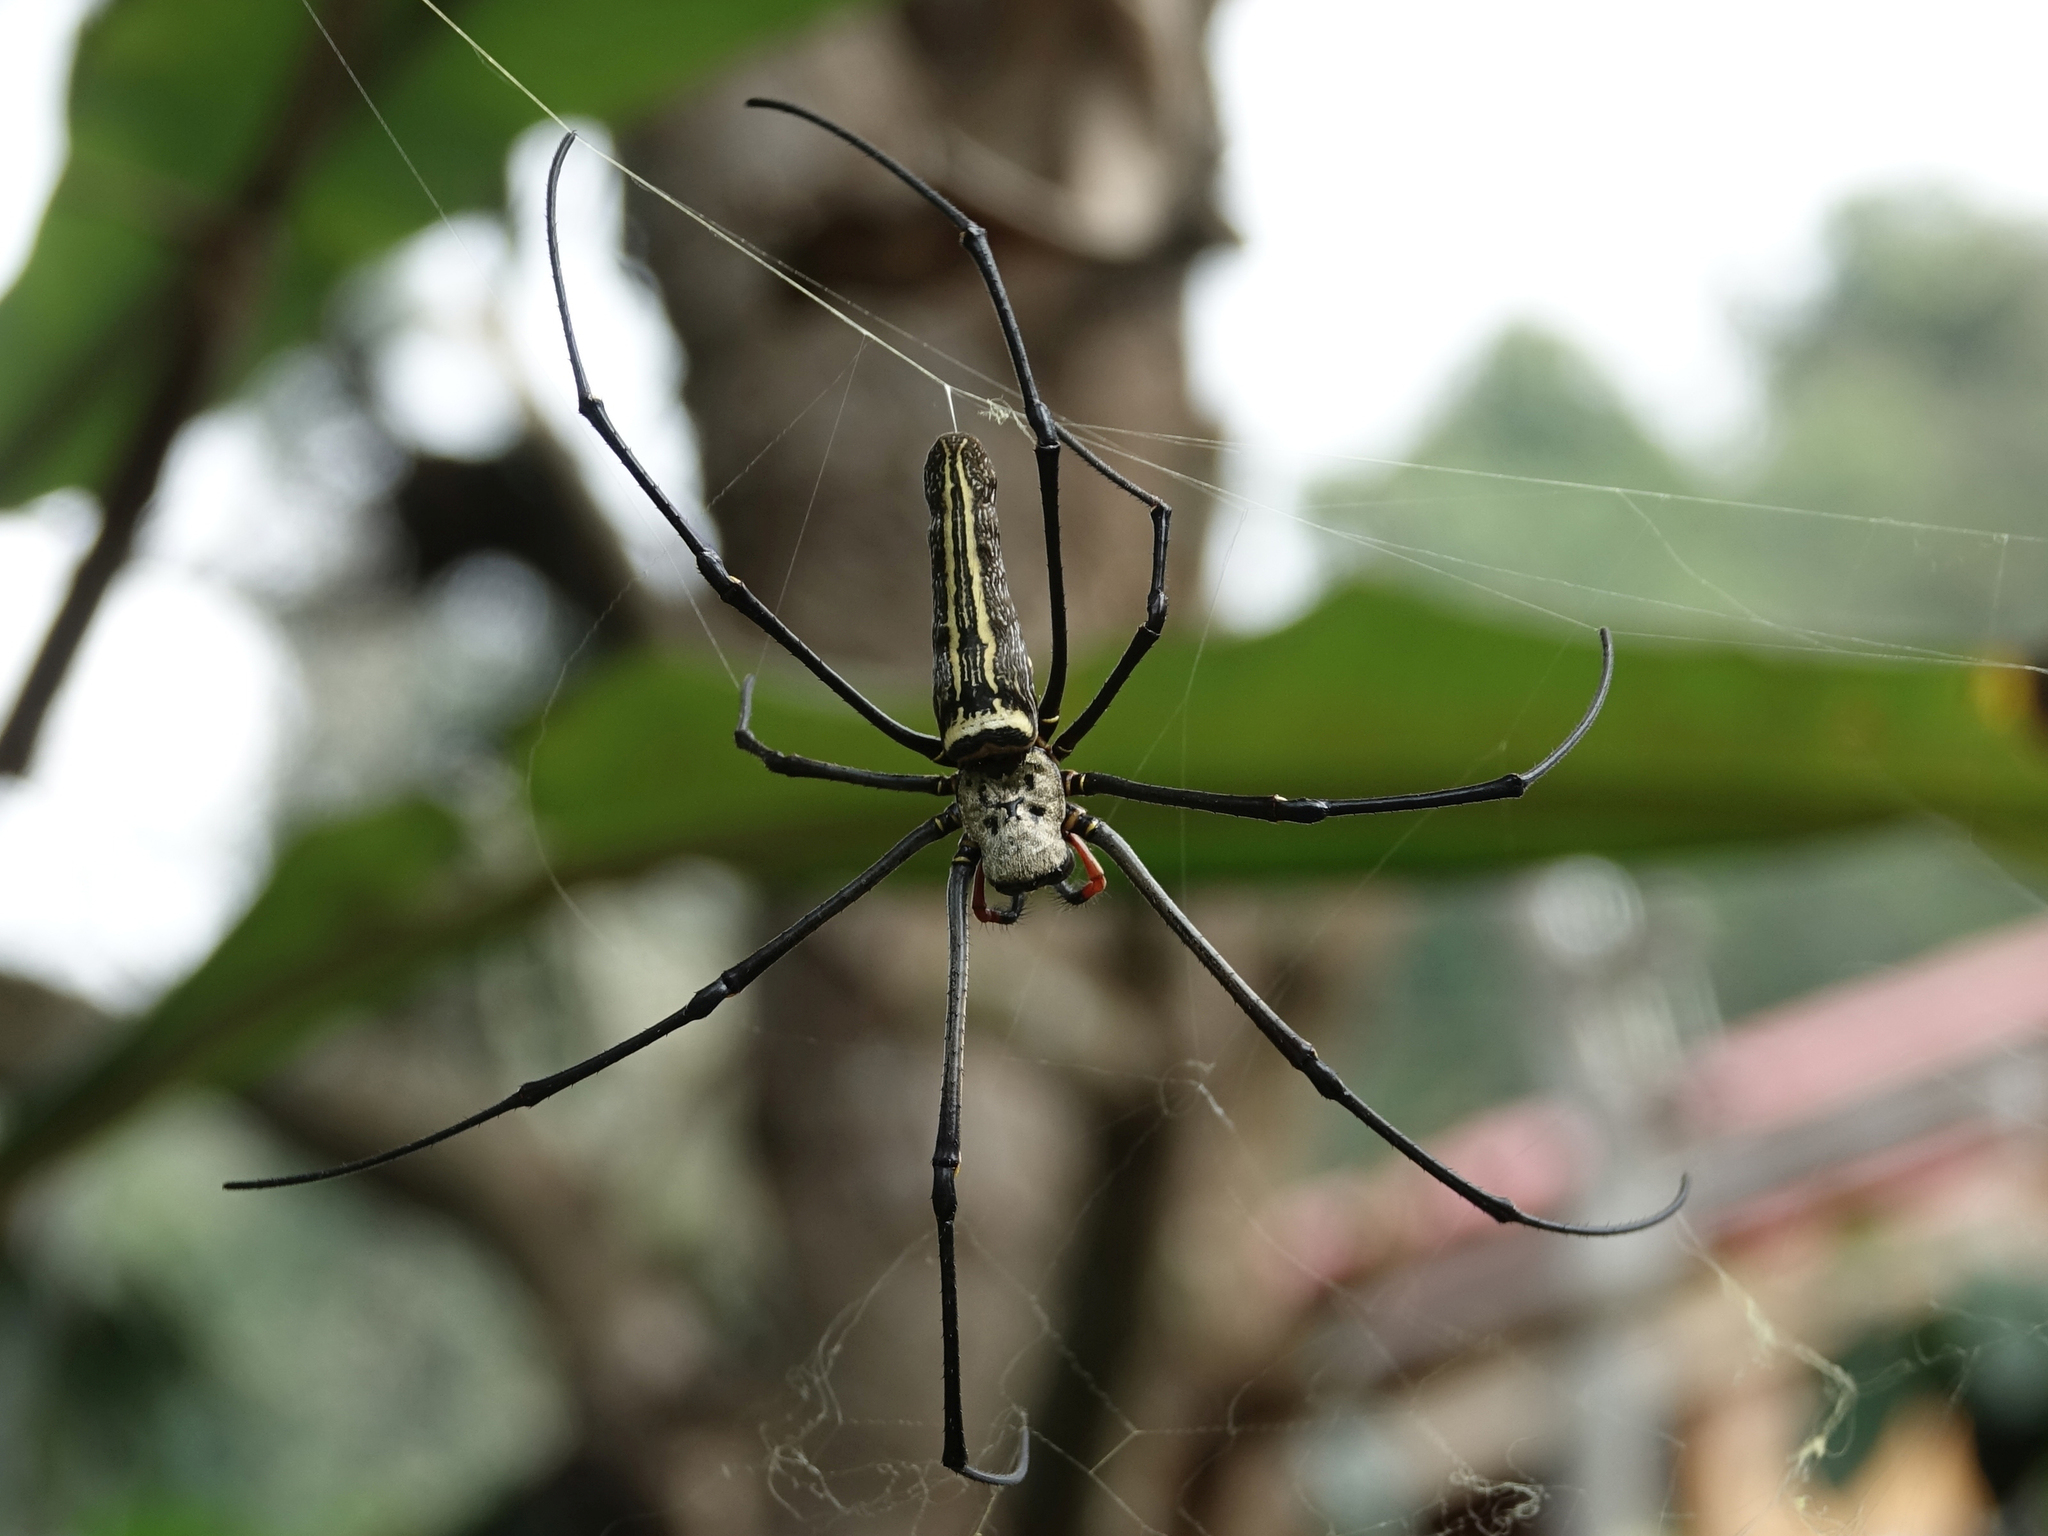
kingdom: Animalia
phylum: Arthropoda
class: Arachnida
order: Araneae
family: Araneidae
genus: Nephila
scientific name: Nephila pilipes
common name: Giant golden orb weaver
